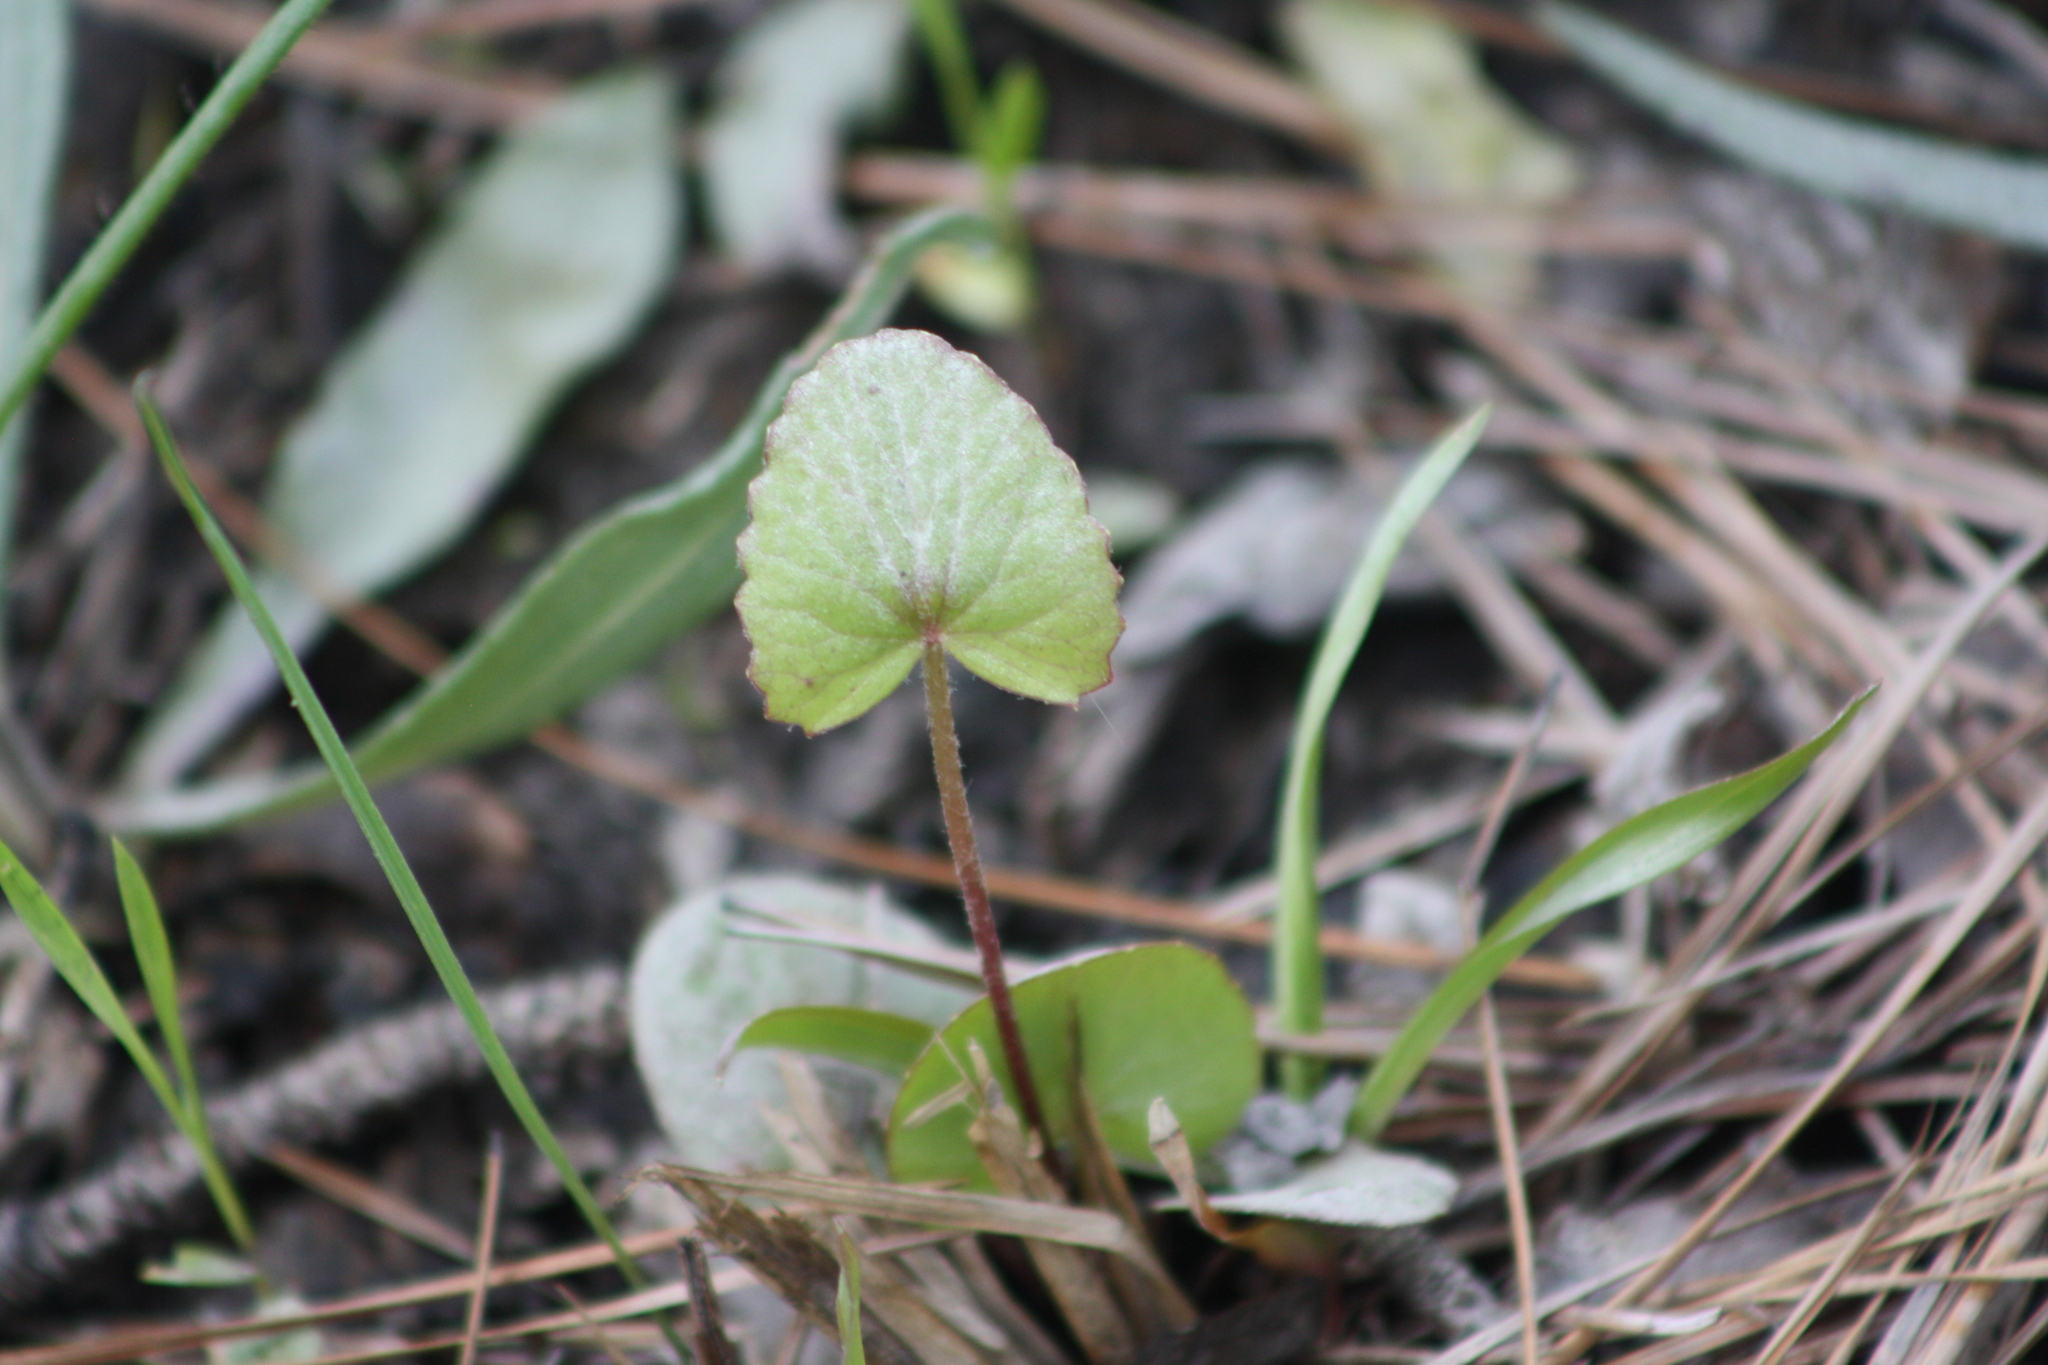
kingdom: Plantae
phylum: Tracheophyta
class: Magnoliopsida
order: Apiales
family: Apiaceae
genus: Centella
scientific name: Centella erecta
